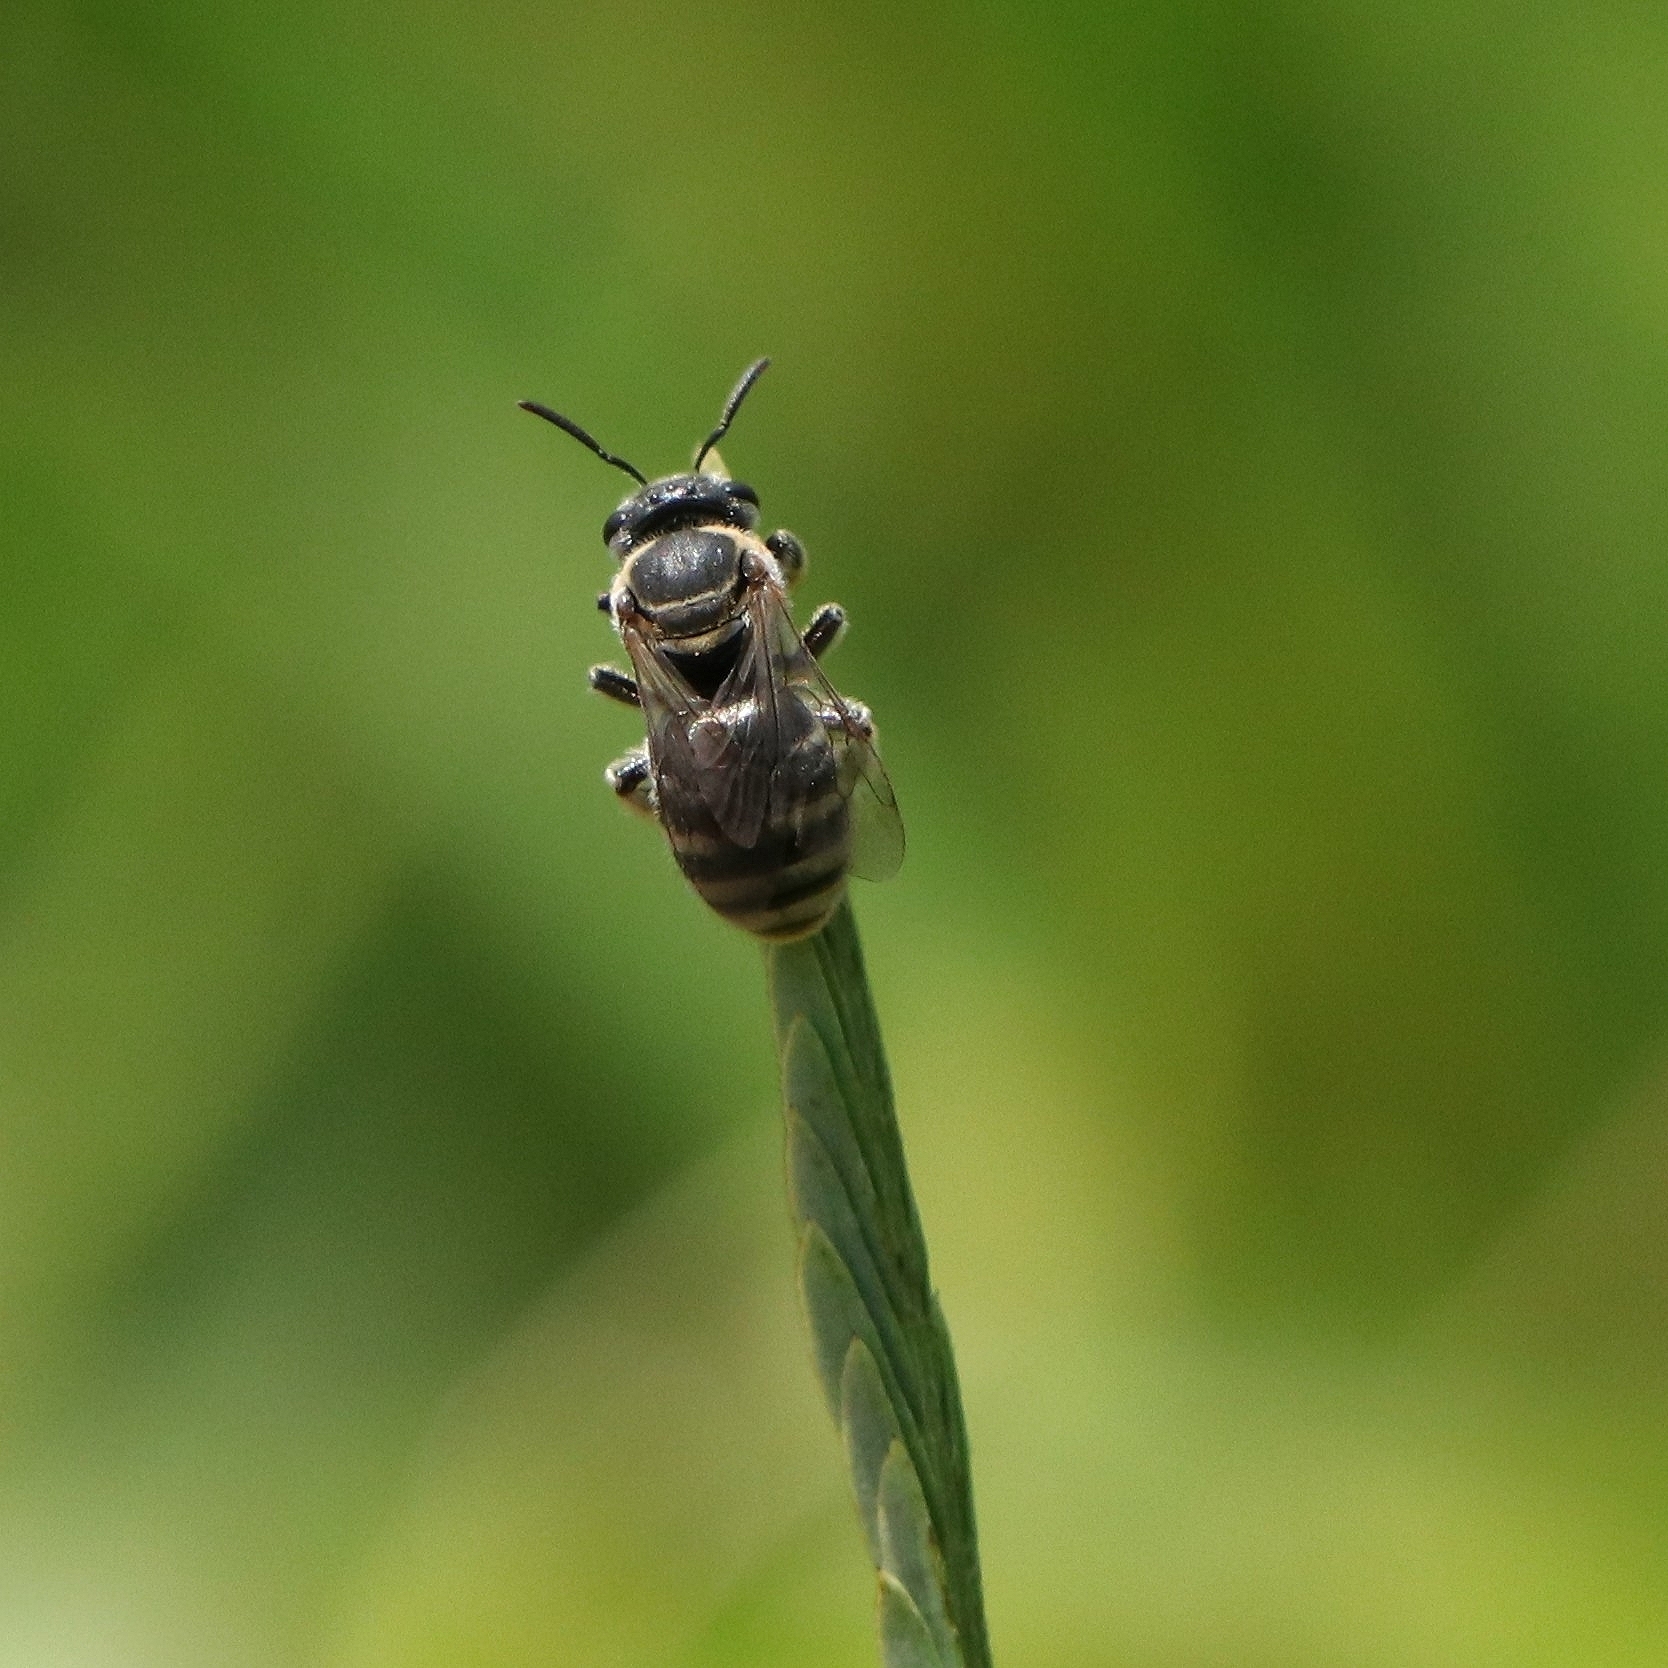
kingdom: Animalia
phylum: Arthropoda
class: Insecta
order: Hymenoptera
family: Halictidae
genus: Nomia
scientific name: Nomia
